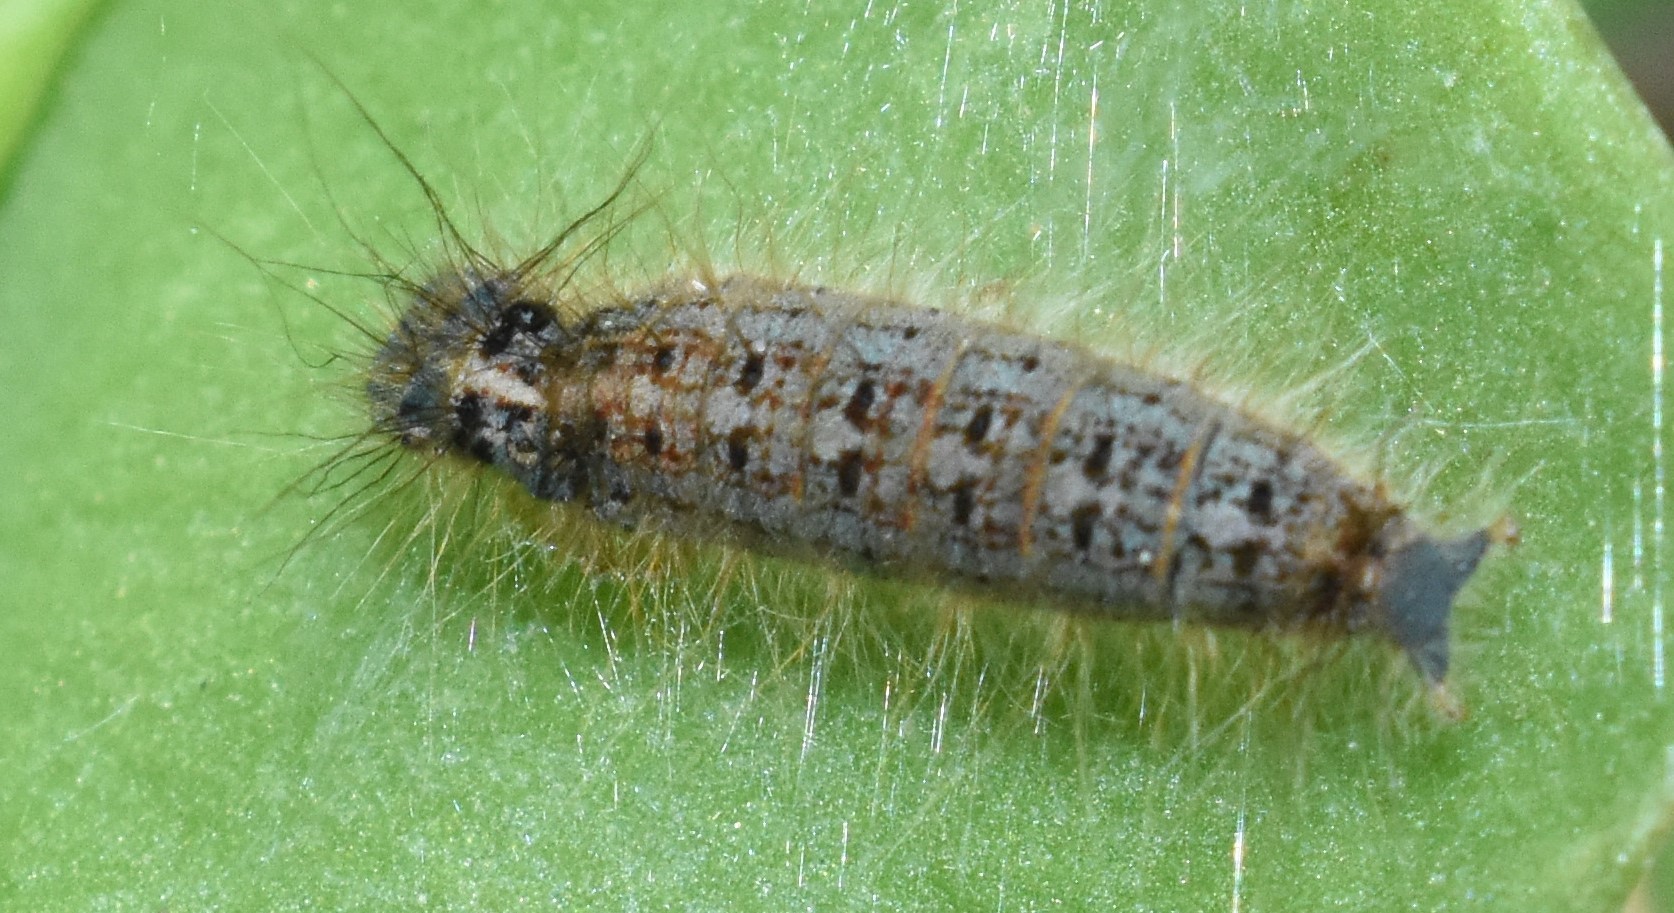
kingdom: Animalia
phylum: Arthropoda
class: Insecta
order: Lepidoptera
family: Lasiocampidae
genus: Malacosoma
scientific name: Malacosoma disstria
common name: Forest tent caterpillar
